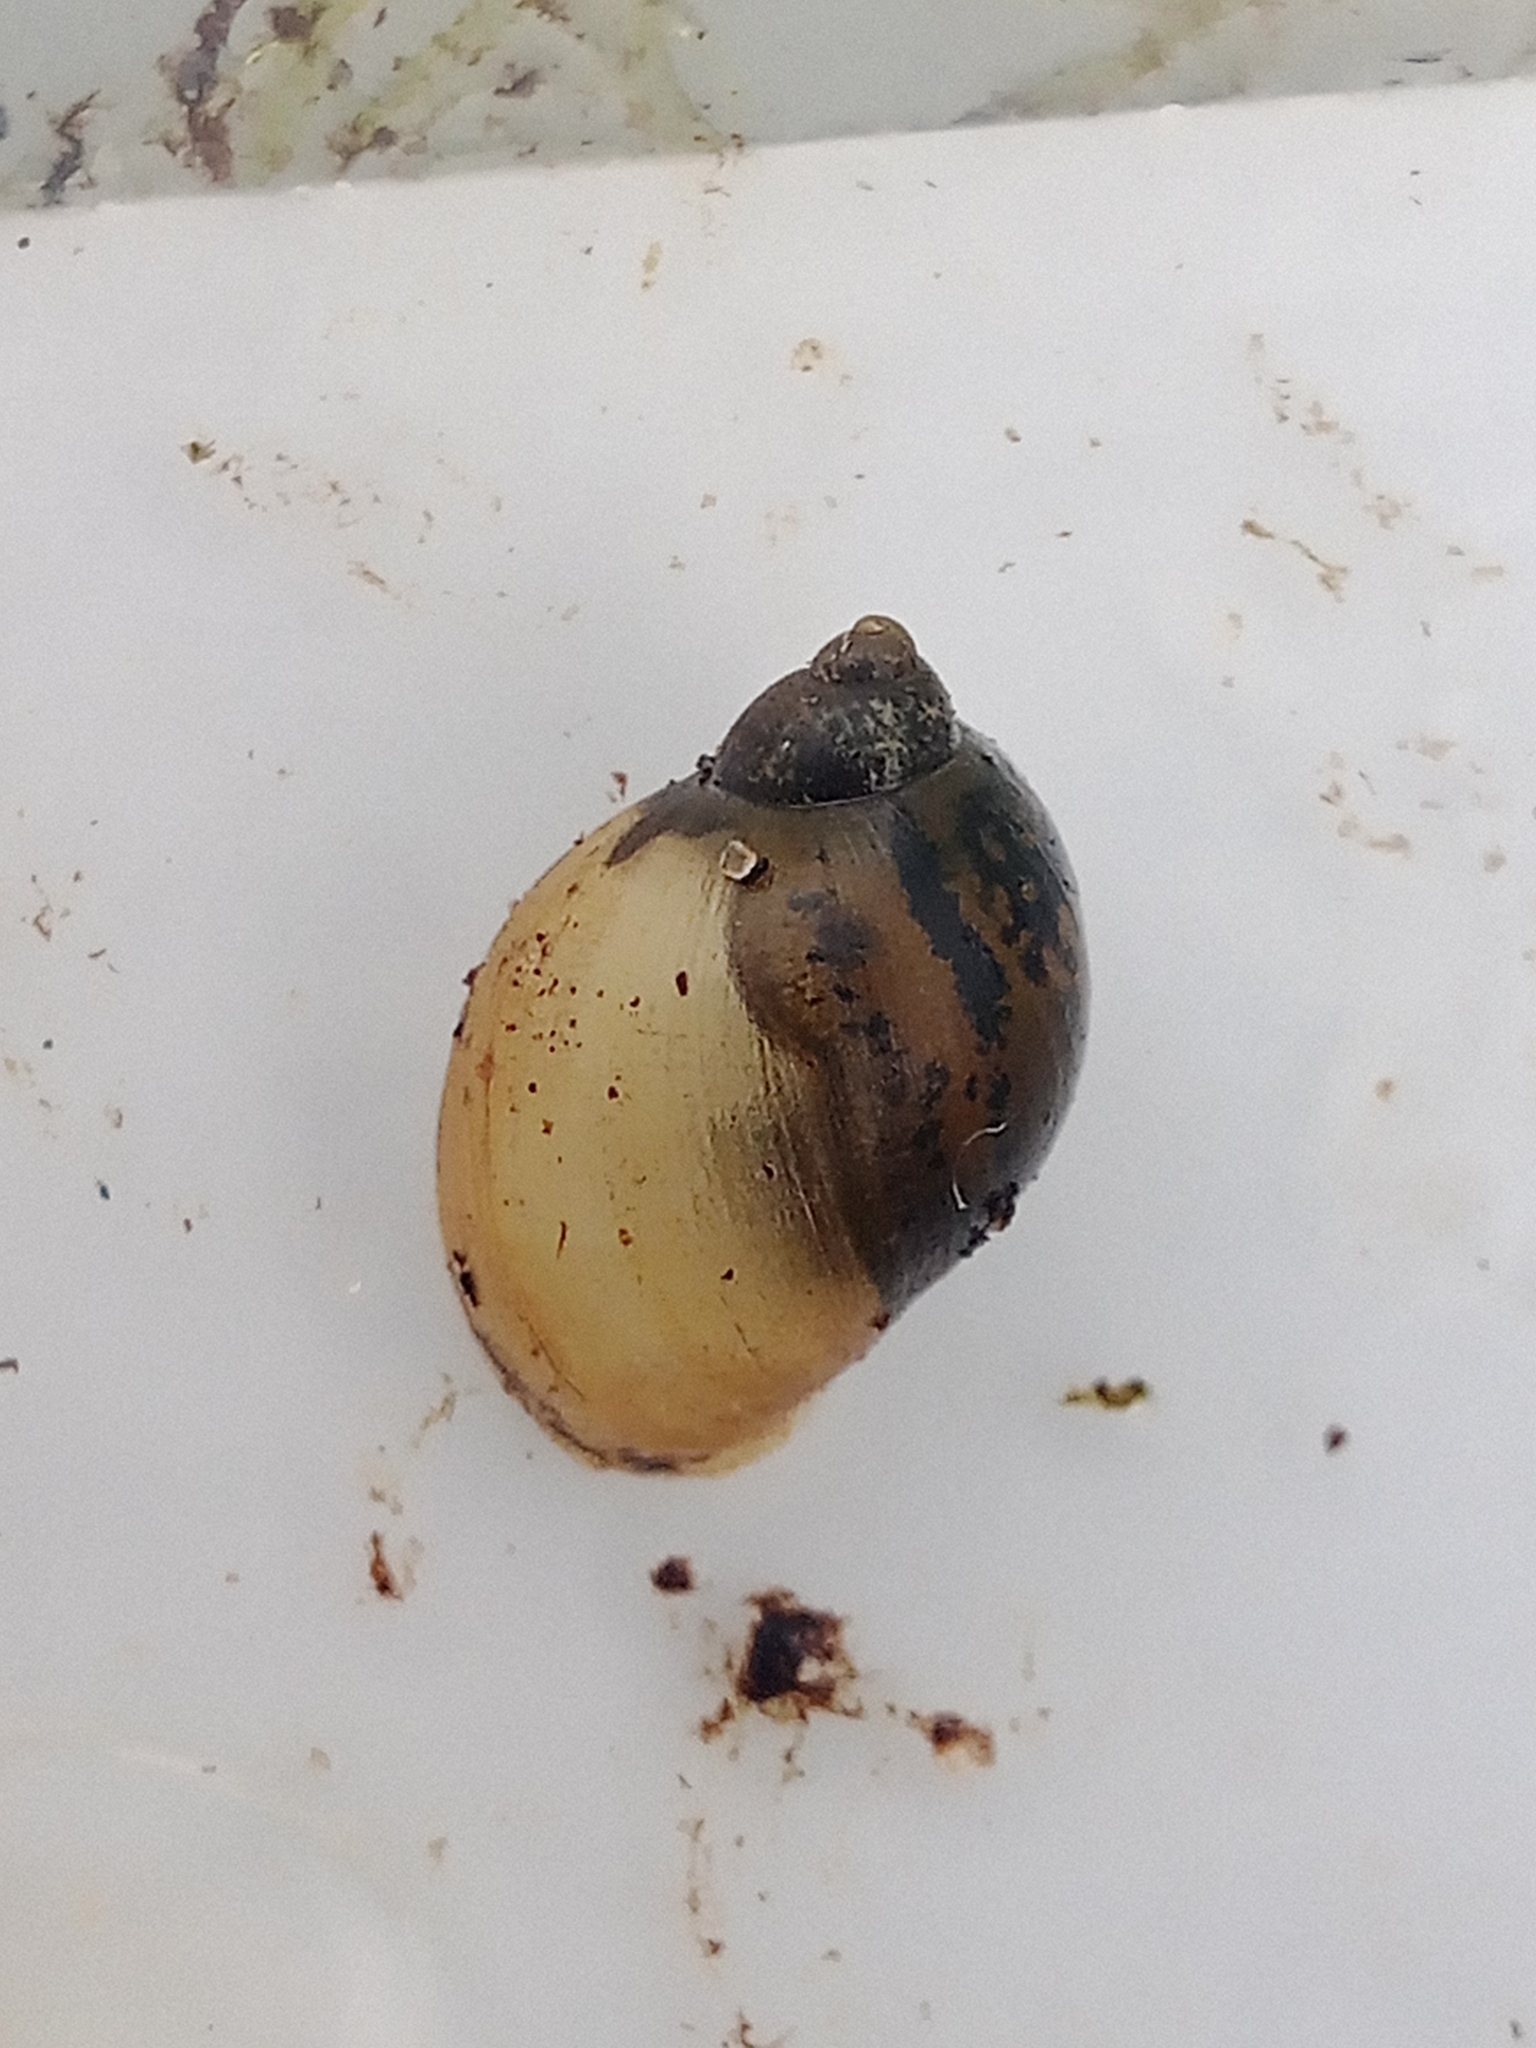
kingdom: Animalia
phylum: Mollusca
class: Gastropoda
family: Lymnaeidae
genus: Ampullaceana
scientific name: Ampullaceana balthica
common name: Wandering pond snail
